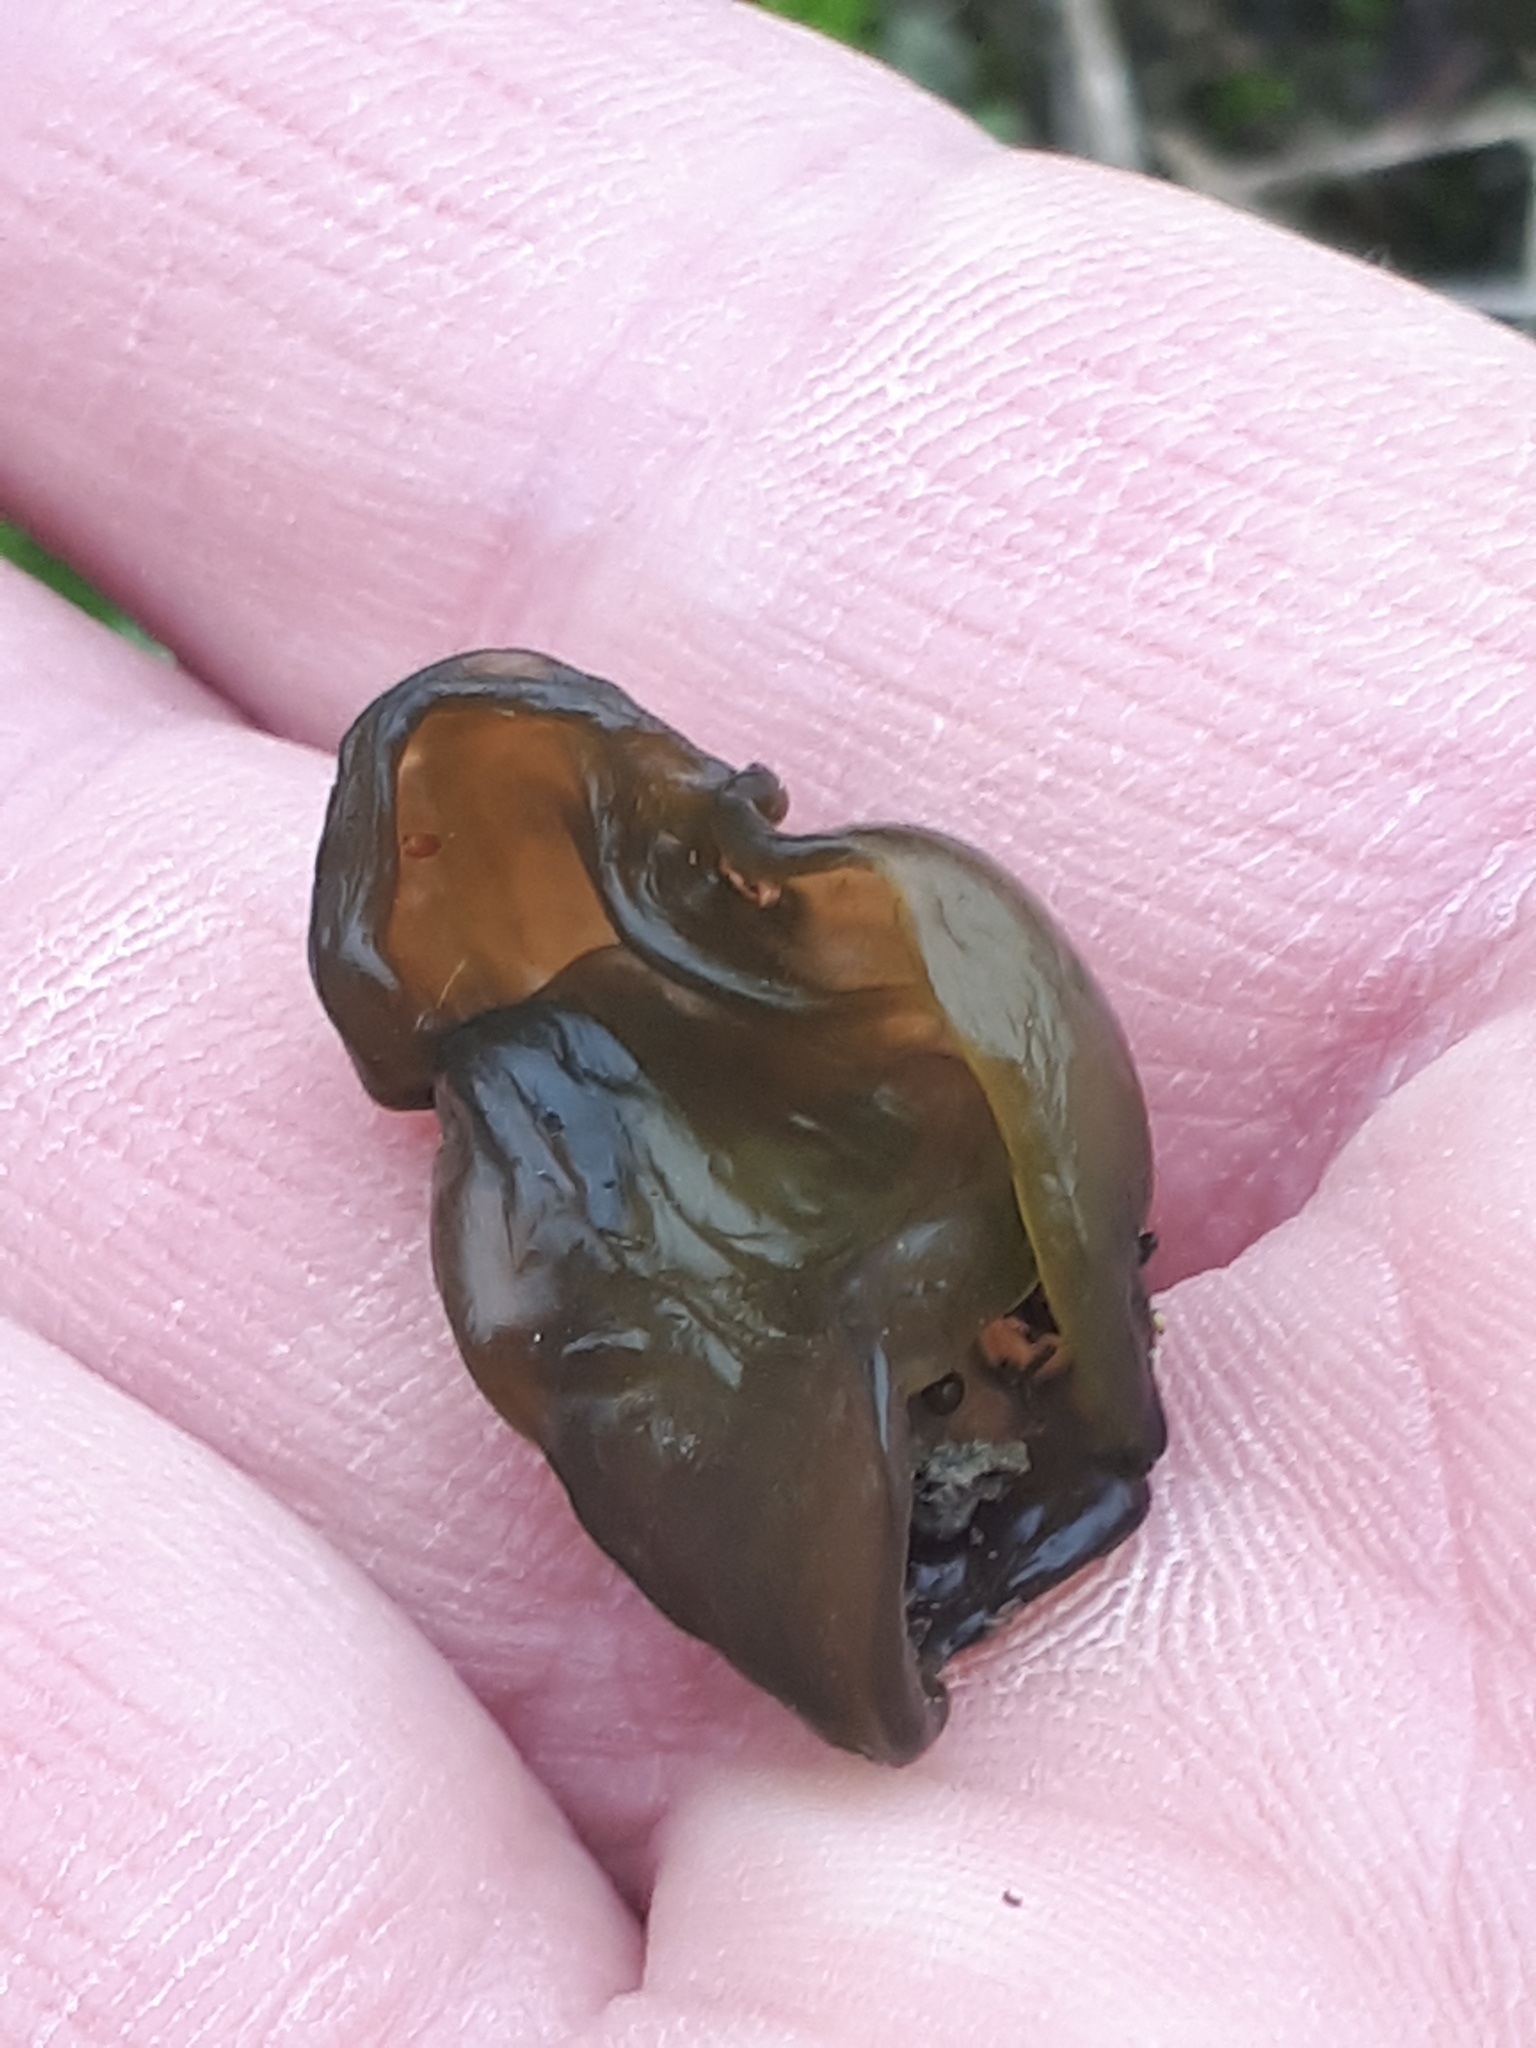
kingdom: Bacteria
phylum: Cyanobacteria
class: Cyanobacteriia
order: Cyanobacteriales
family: Nostocaceae
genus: Nostoc
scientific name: Nostoc commune
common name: Star jelly
